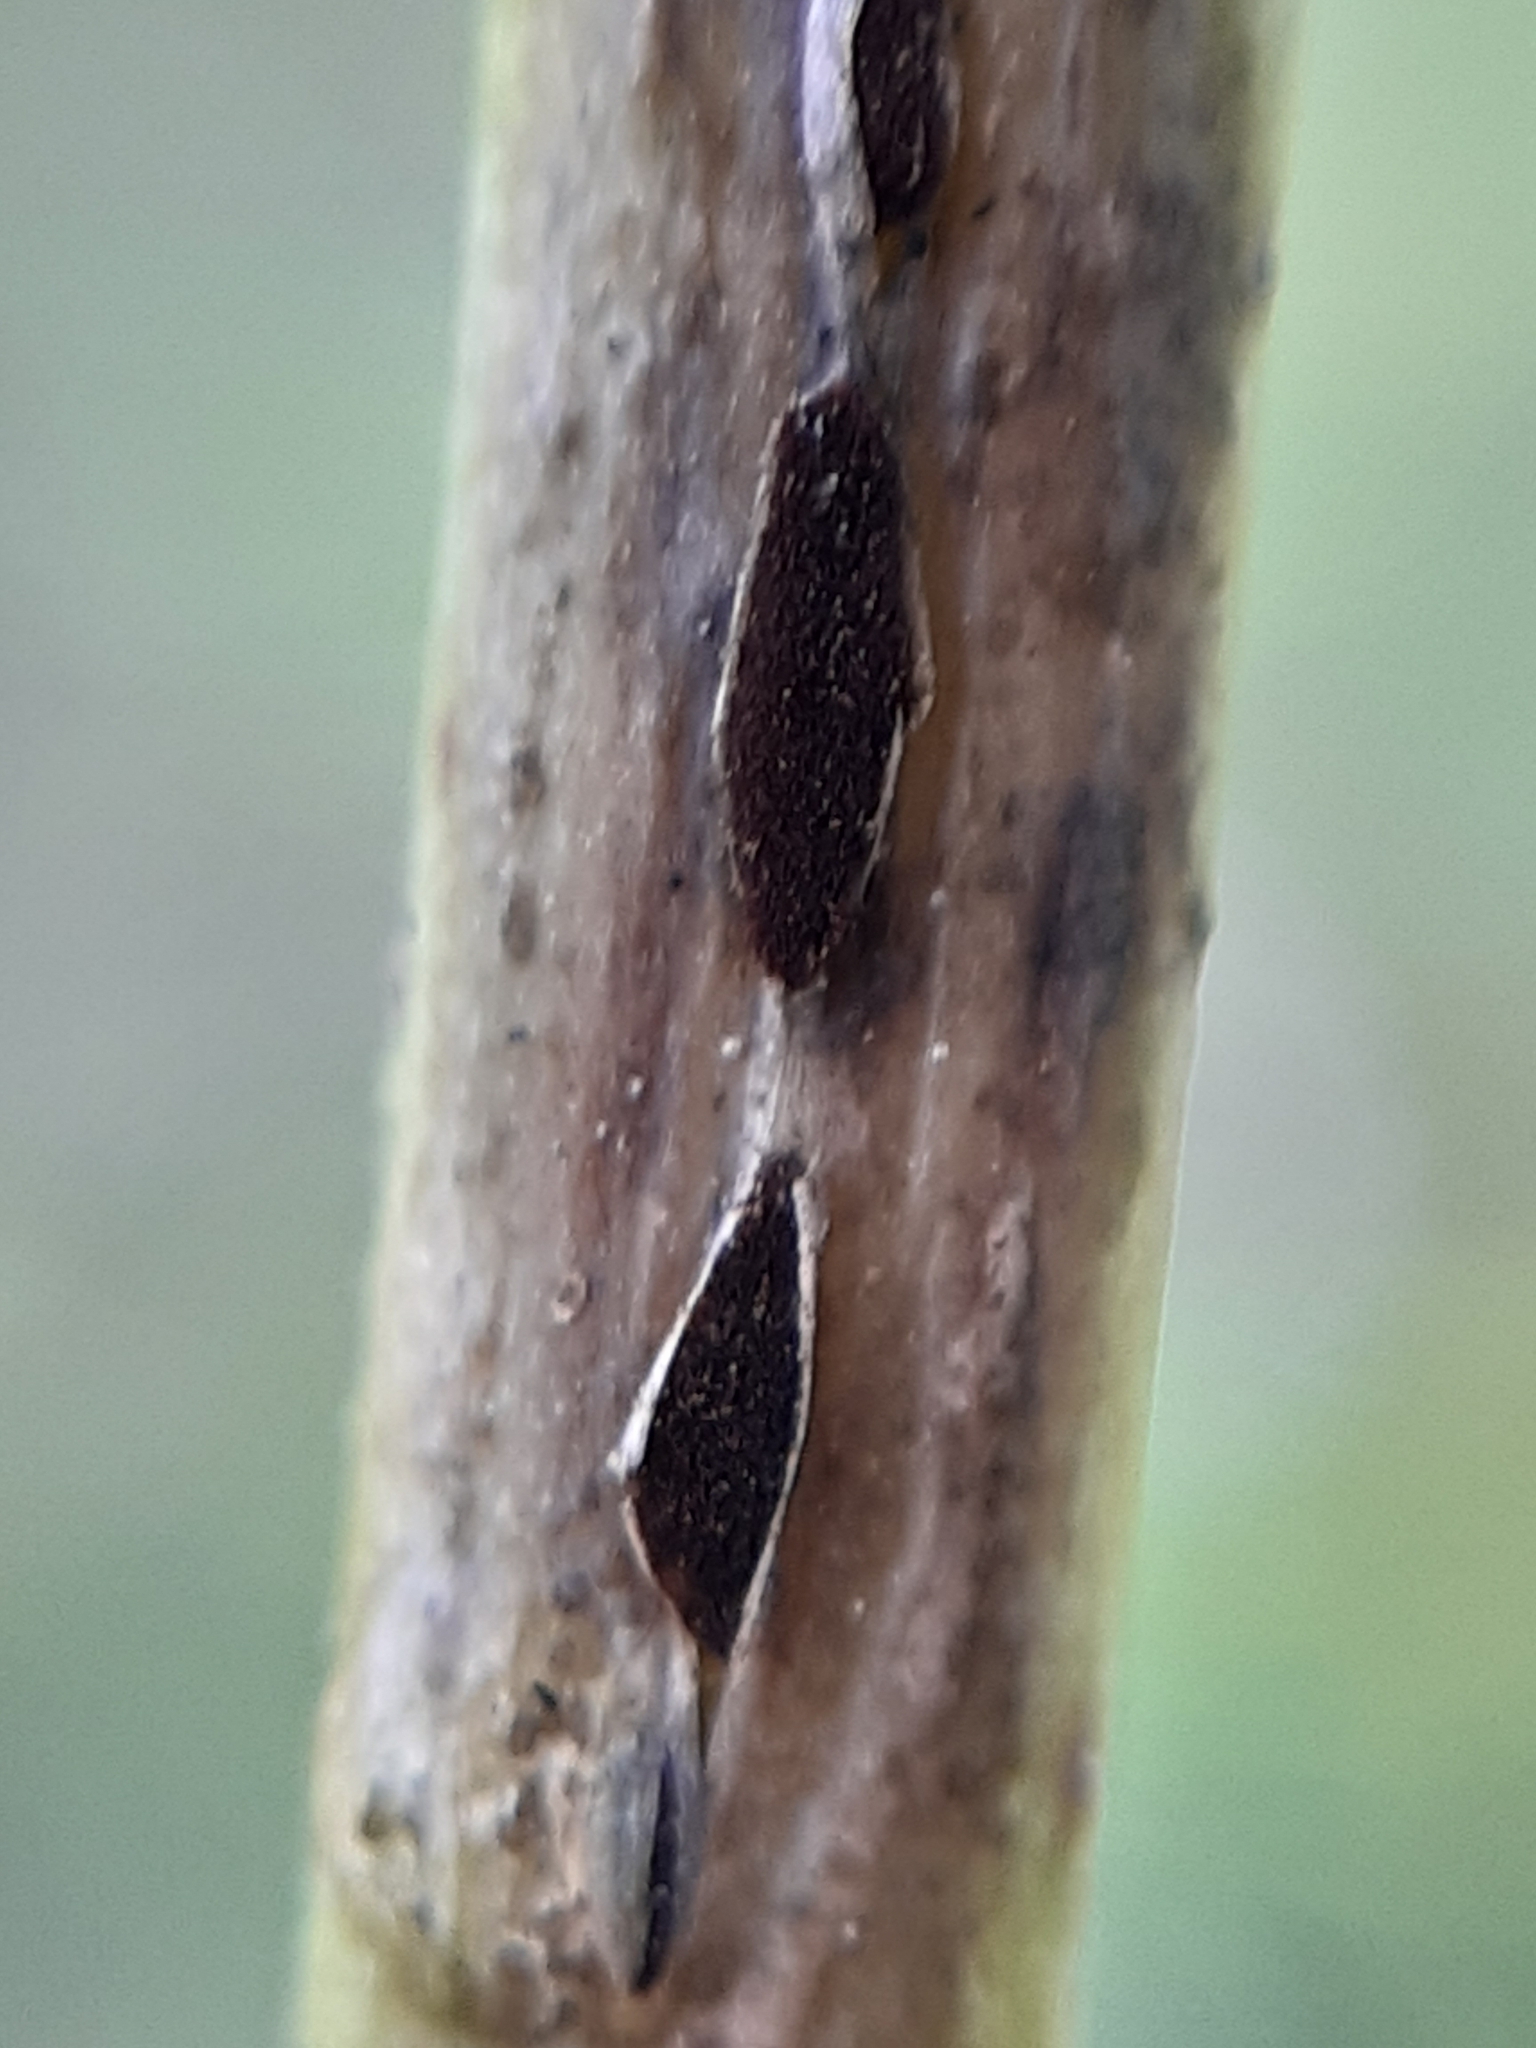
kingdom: Fungi
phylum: Basidiomycota
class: Pucciniomycetes
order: Pucciniales
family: Pucciniaceae
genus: Puccinia
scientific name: Puccinia asparagi
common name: Asparagus rust
